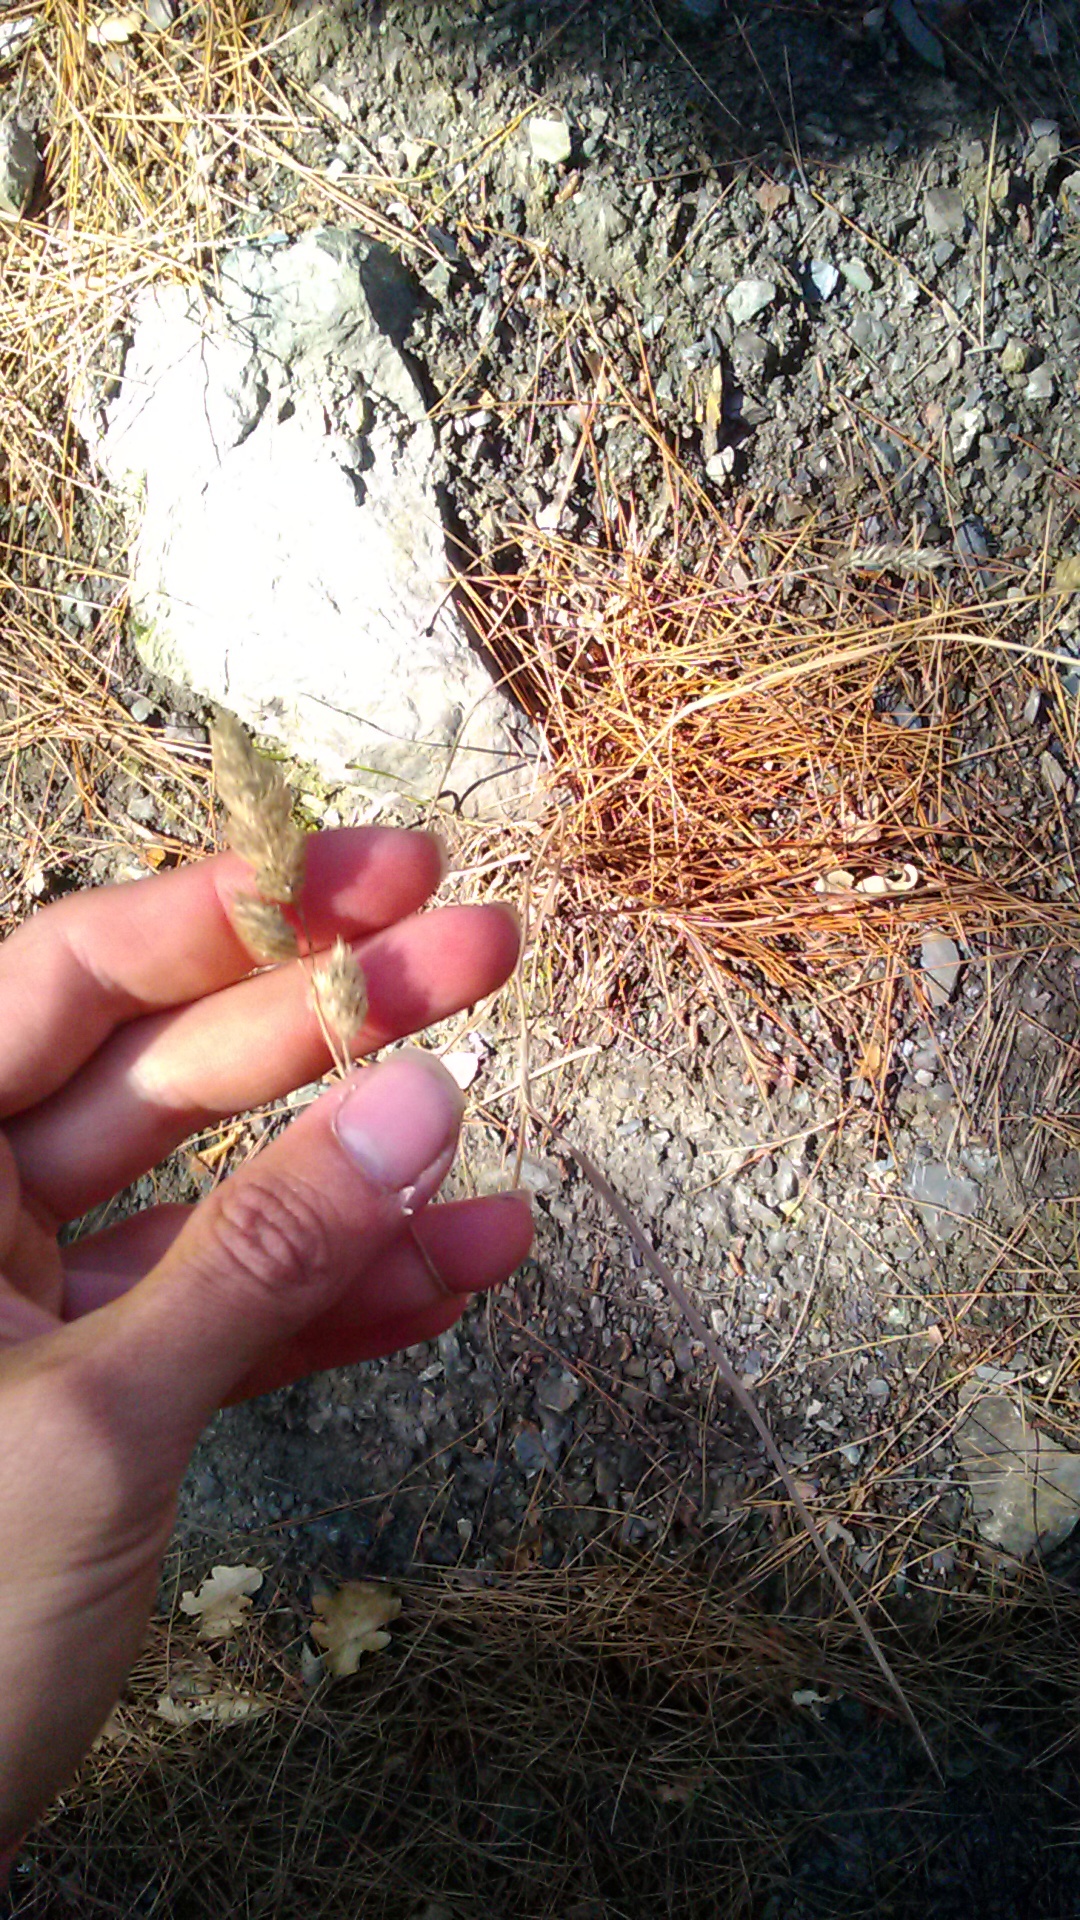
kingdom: Plantae
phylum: Tracheophyta
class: Liliopsida
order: Poales
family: Poaceae
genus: Dactylis
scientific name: Dactylis glomerata
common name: Orchardgrass
